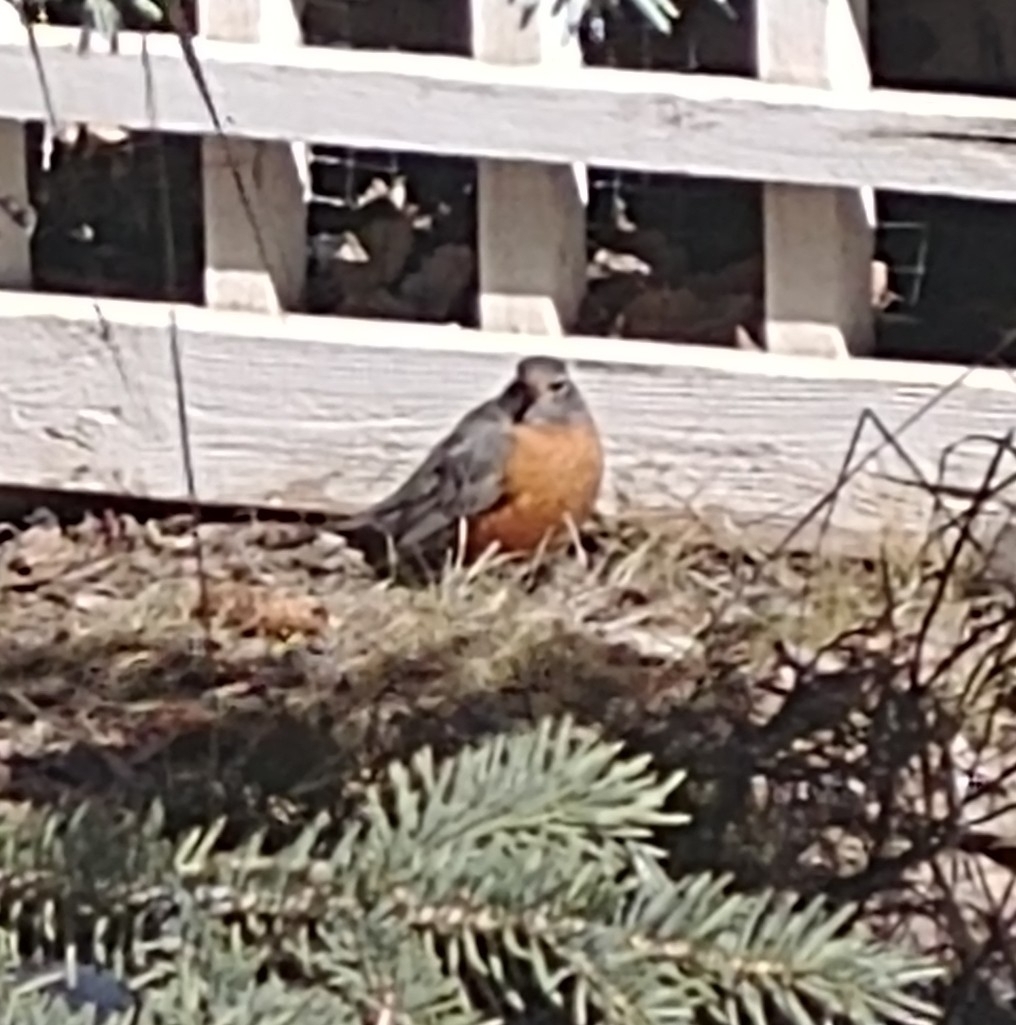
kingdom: Animalia
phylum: Chordata
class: Aves
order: Passeriformes
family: Turdidae
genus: Turdus
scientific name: Turdus migratorius
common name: American robin
